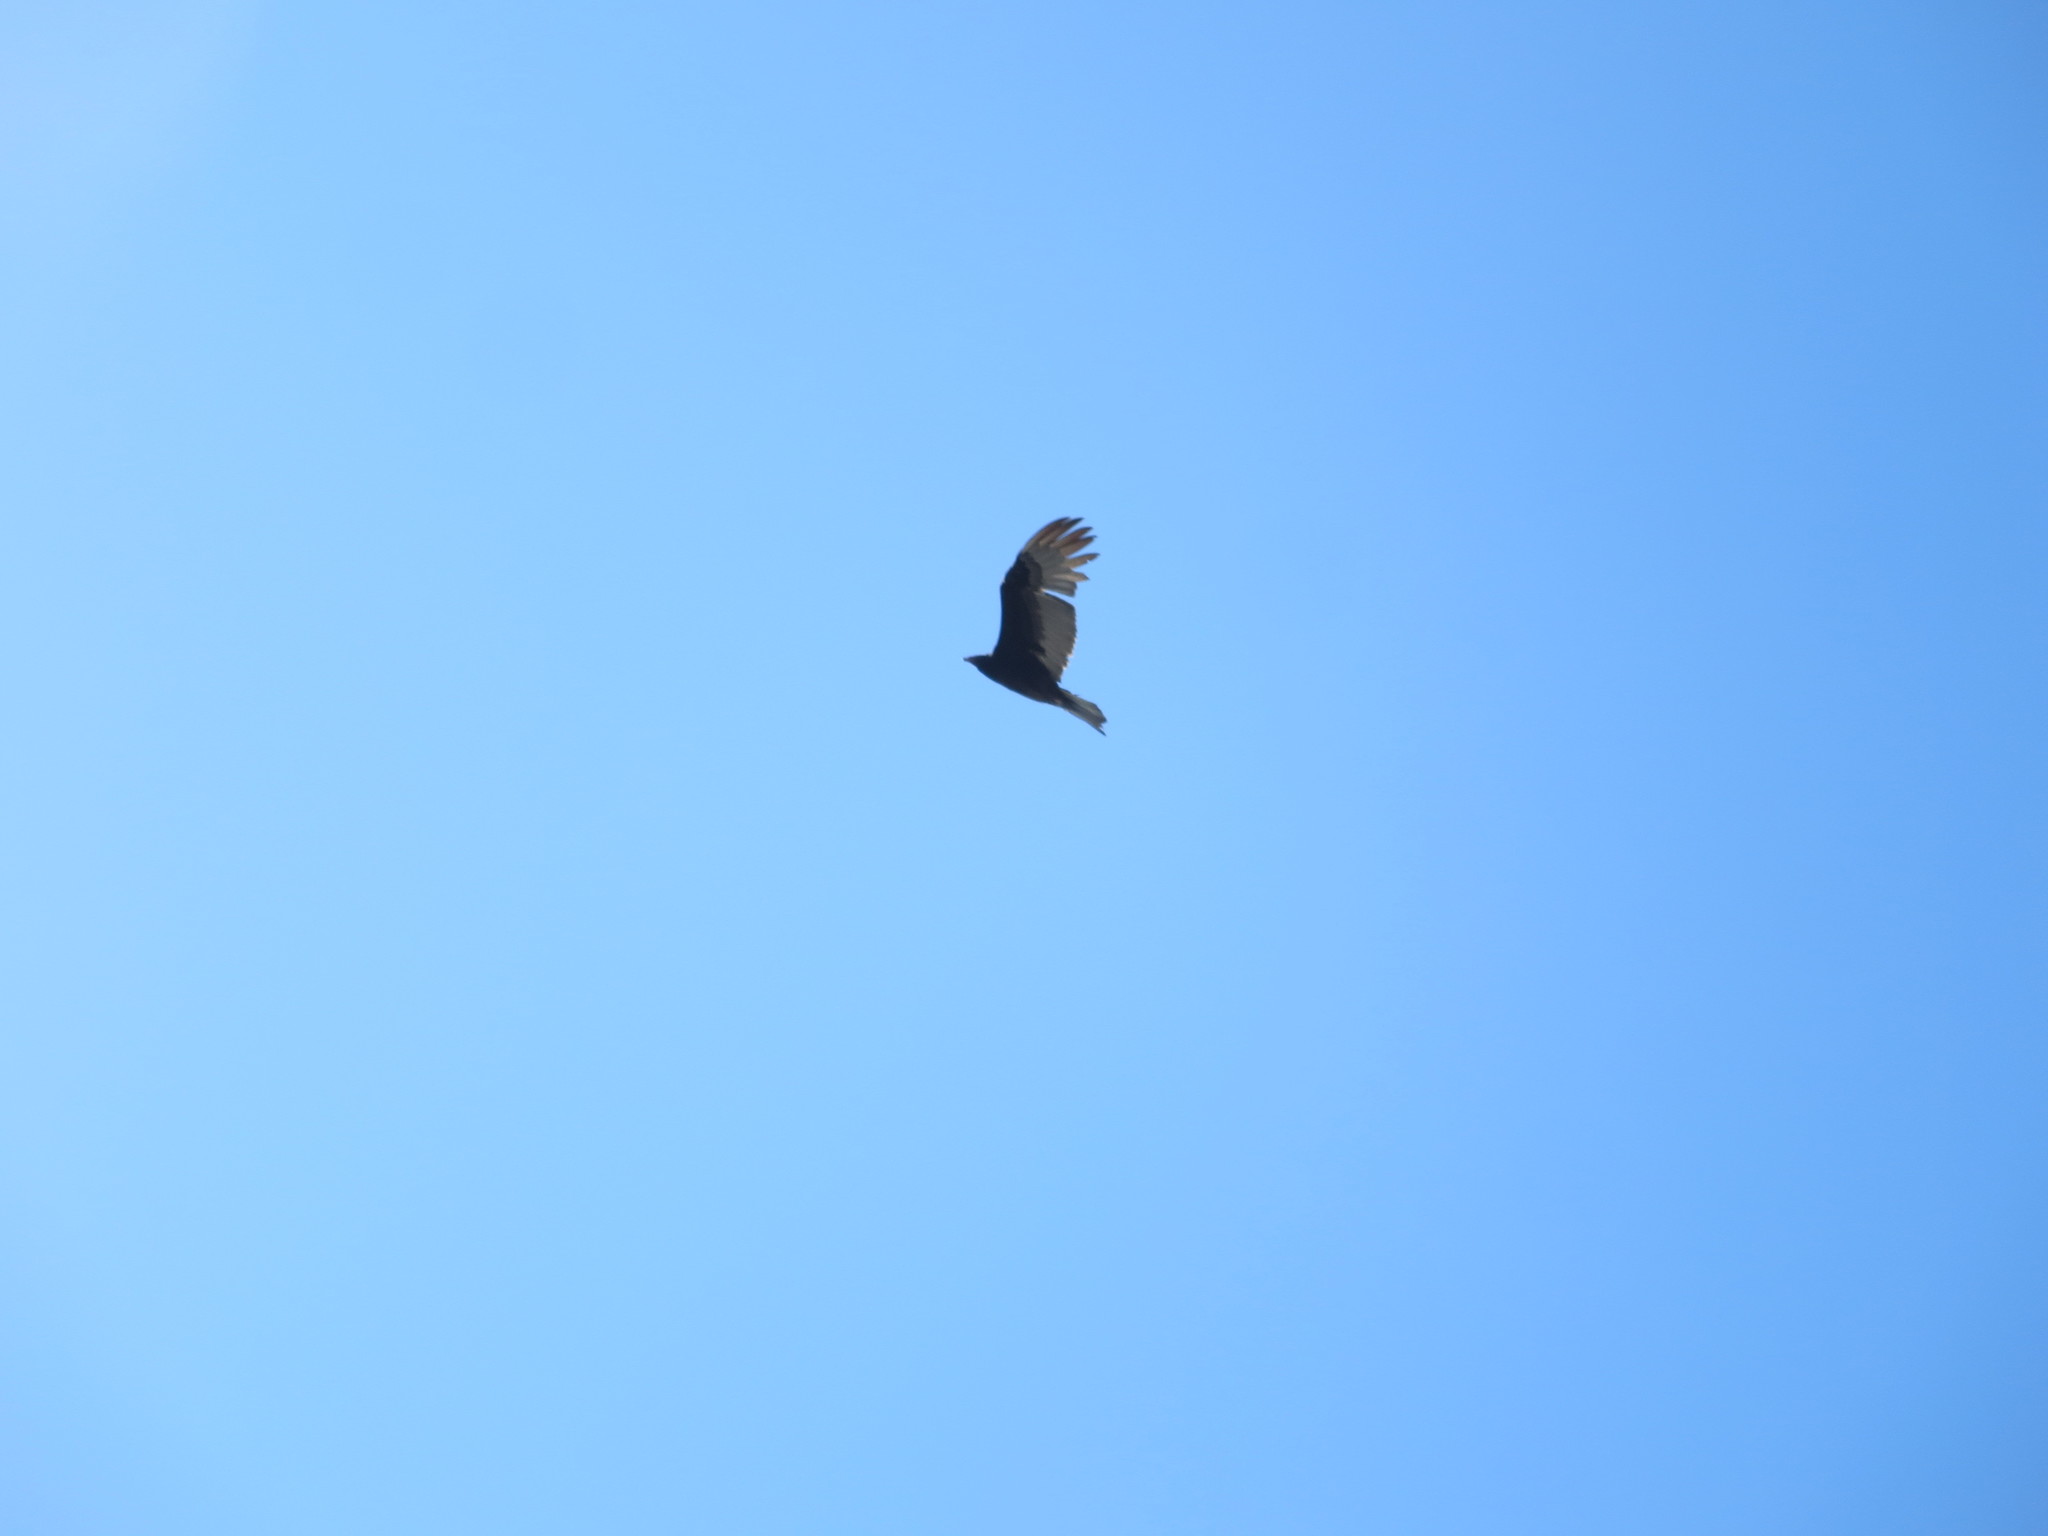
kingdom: Animalia
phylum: Chordata
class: Aves
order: Accipitriformes
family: Cathartidae
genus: Cathartes
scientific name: Cathartes aura
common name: Turkey vulture
